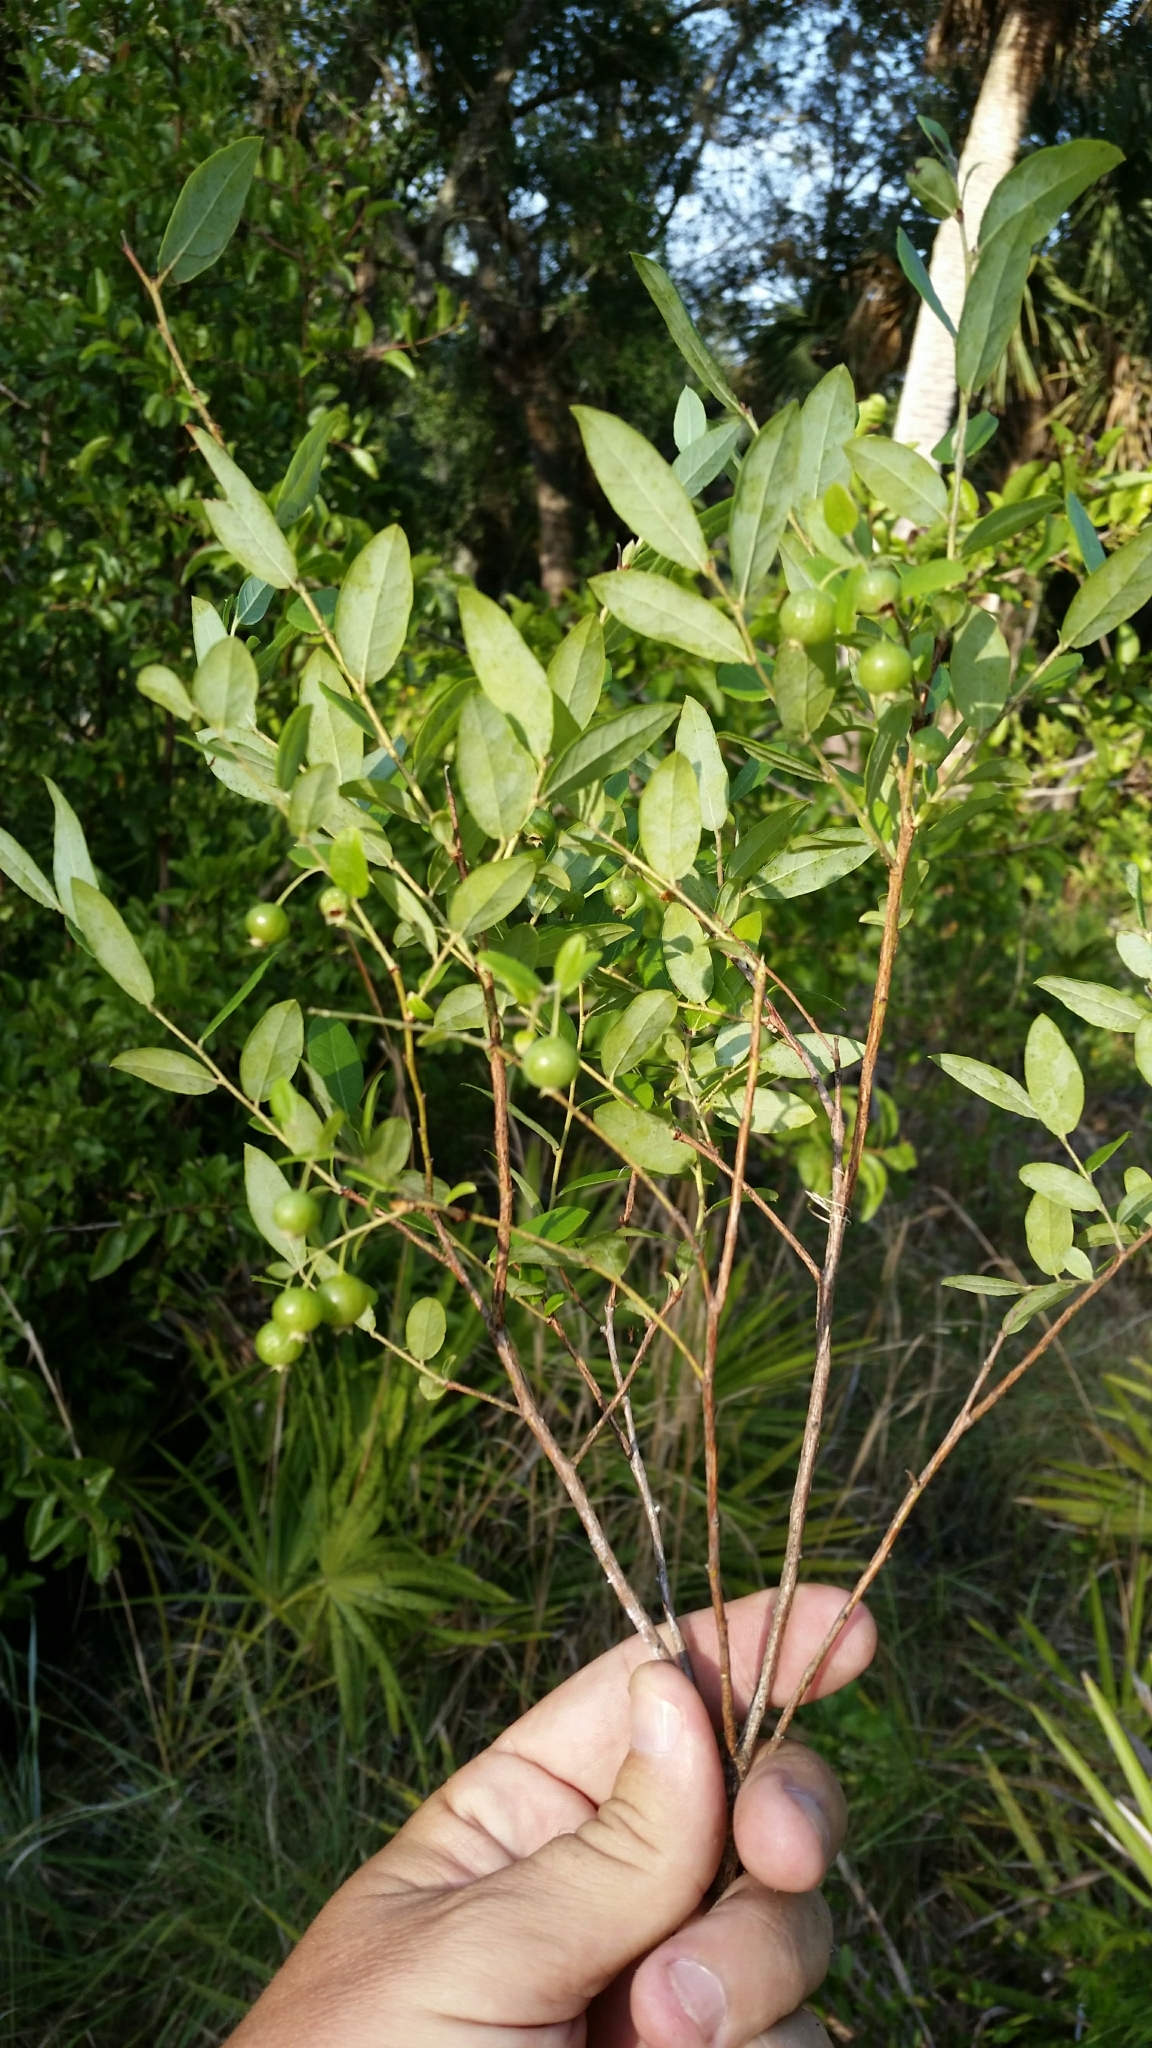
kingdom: Plantae
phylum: Tracheophyta
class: Magnoliopsida
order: Ericales
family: Ericaceae
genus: Vaccinium
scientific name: Vaccinium stamineum
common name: Deerberry
